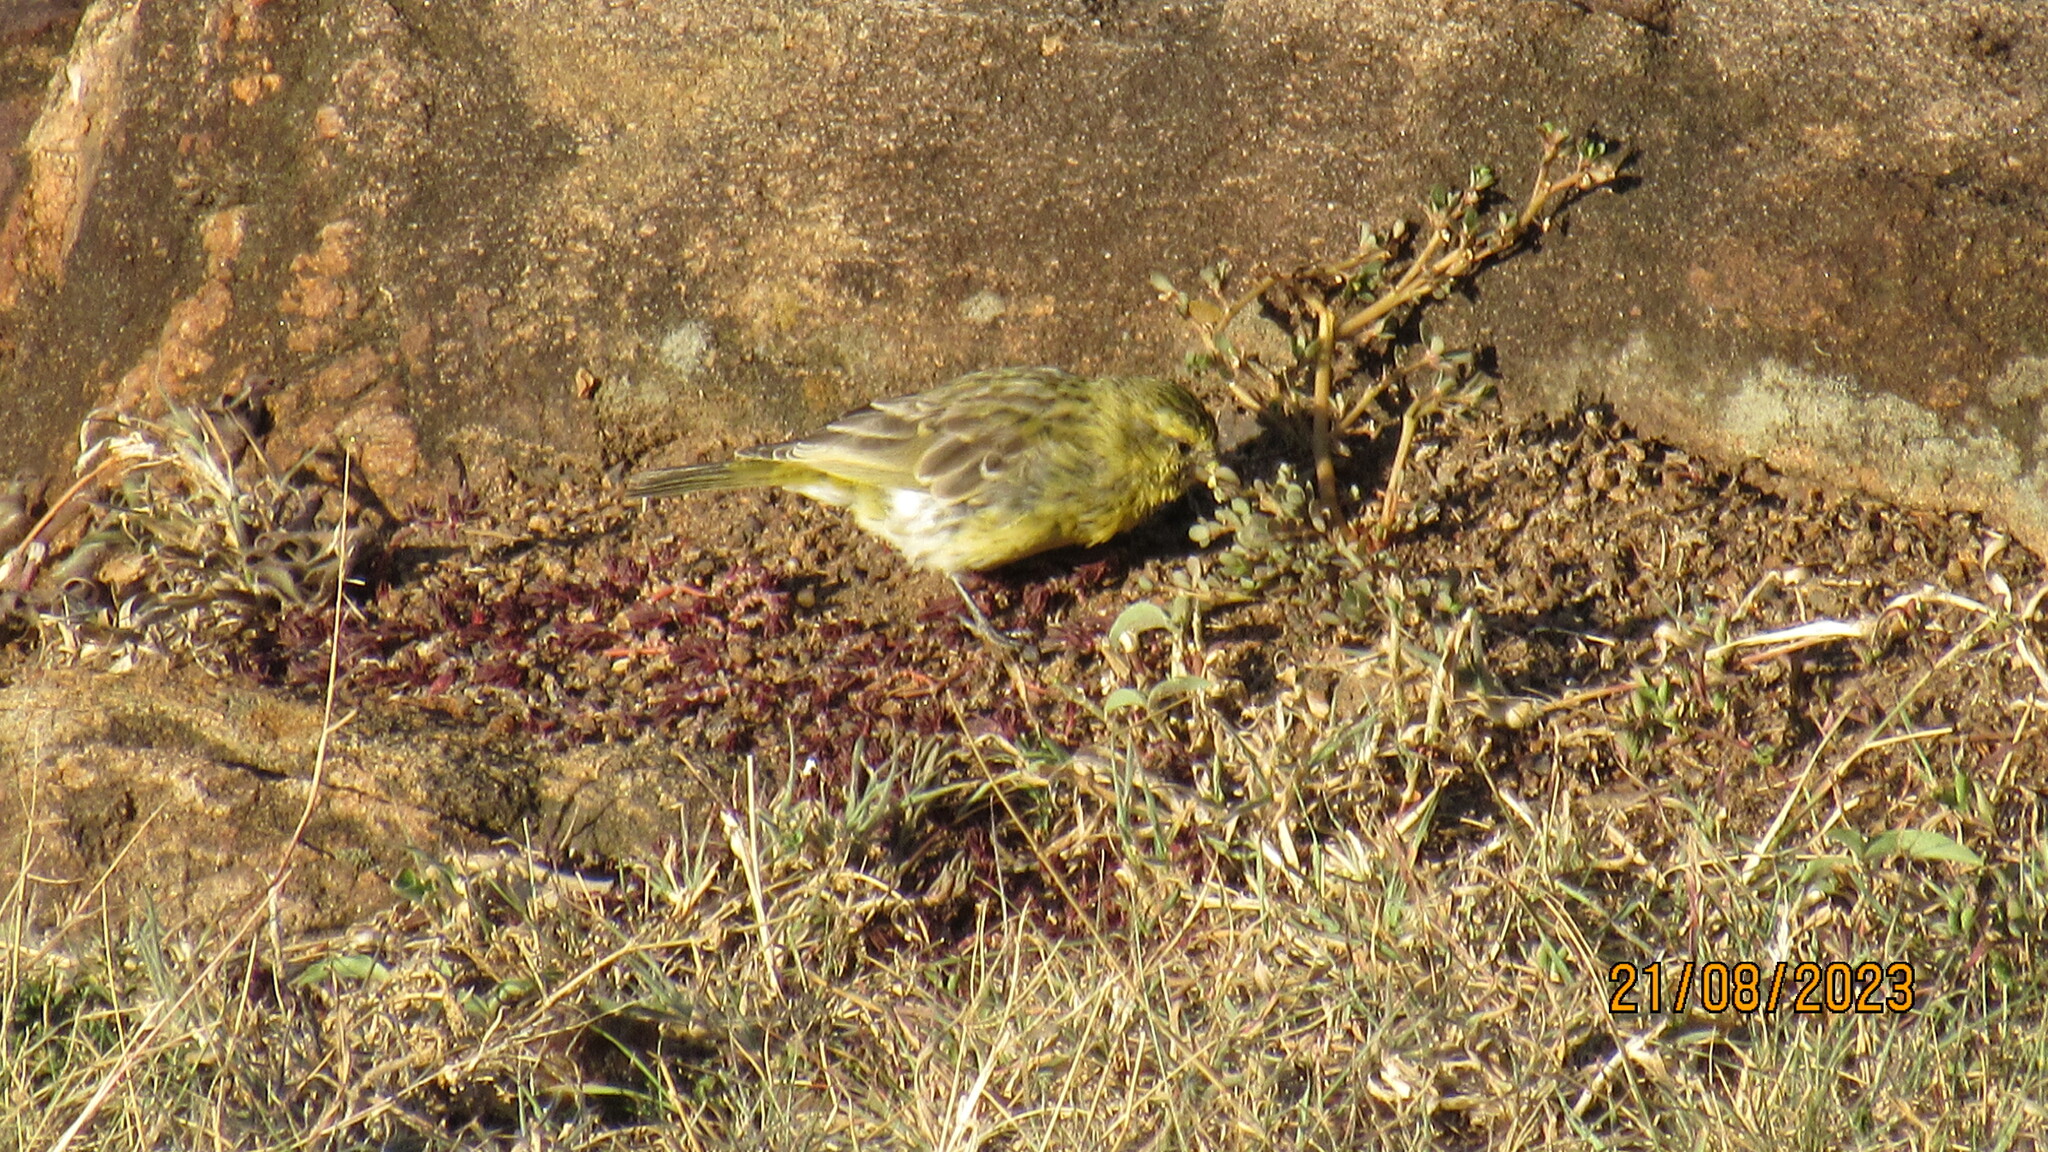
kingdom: Animalia
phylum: Chordata
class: Aves
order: Passeriformes
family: Fringillidae
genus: Crithagra
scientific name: Crithagra dorsostriata
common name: White-bellied canary
